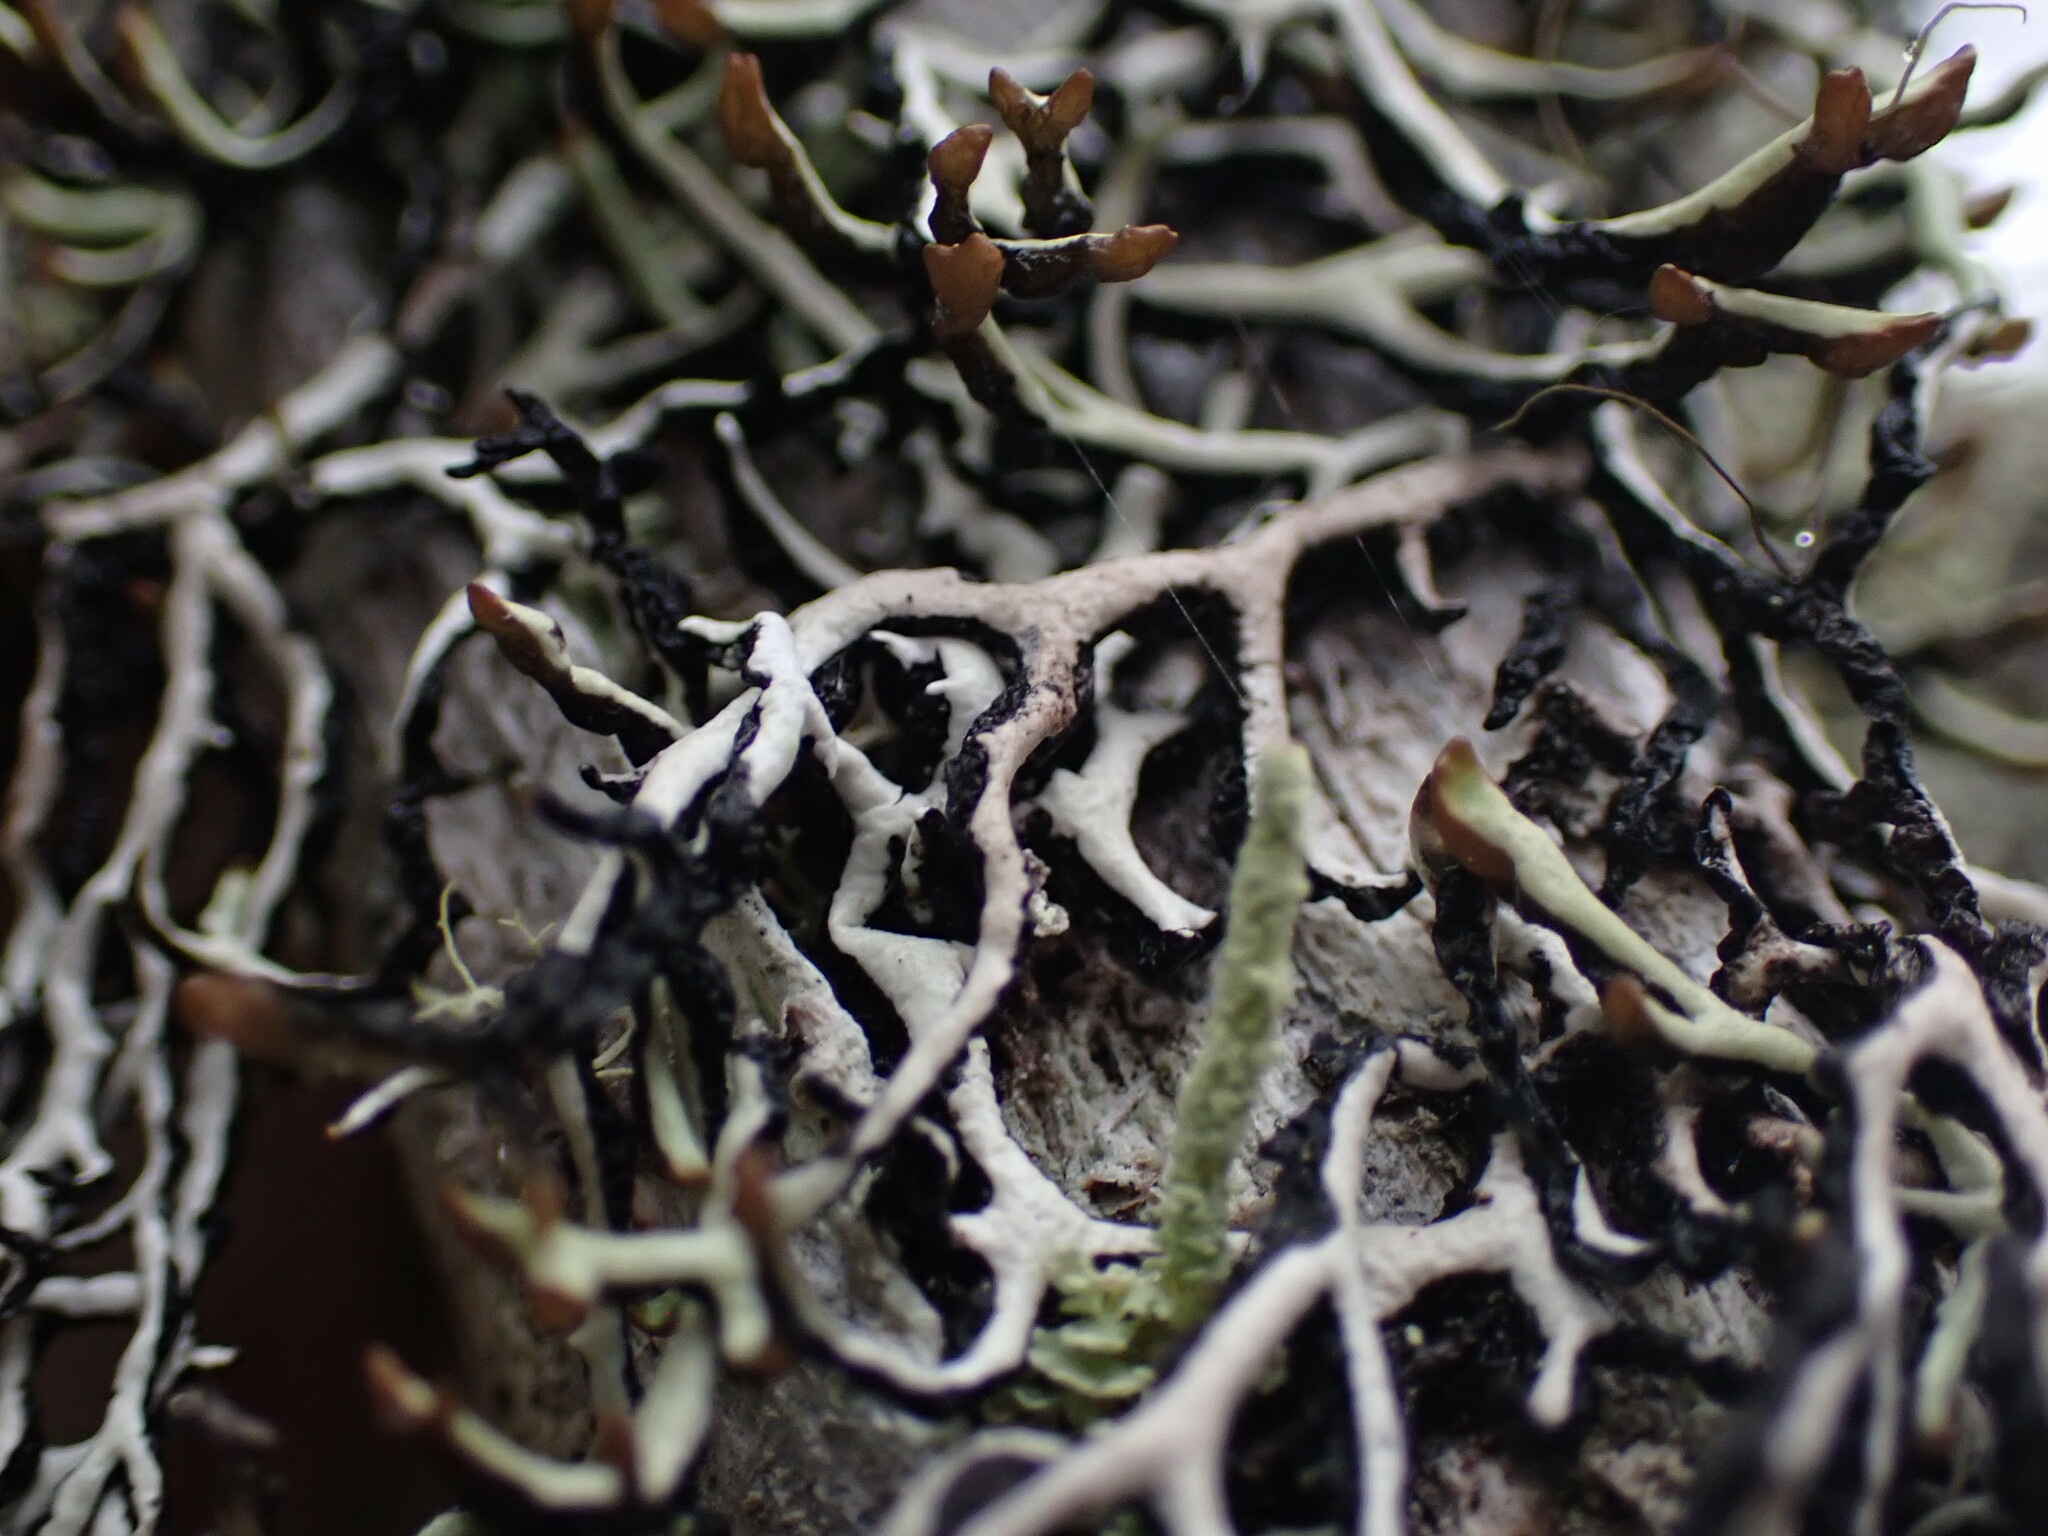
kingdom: Fungi
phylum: Ascomycota
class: Lecanoromycetes
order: Lecanorales
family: Parmeliaceae
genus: Hypogymnia
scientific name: Hypogymnia duplicata
